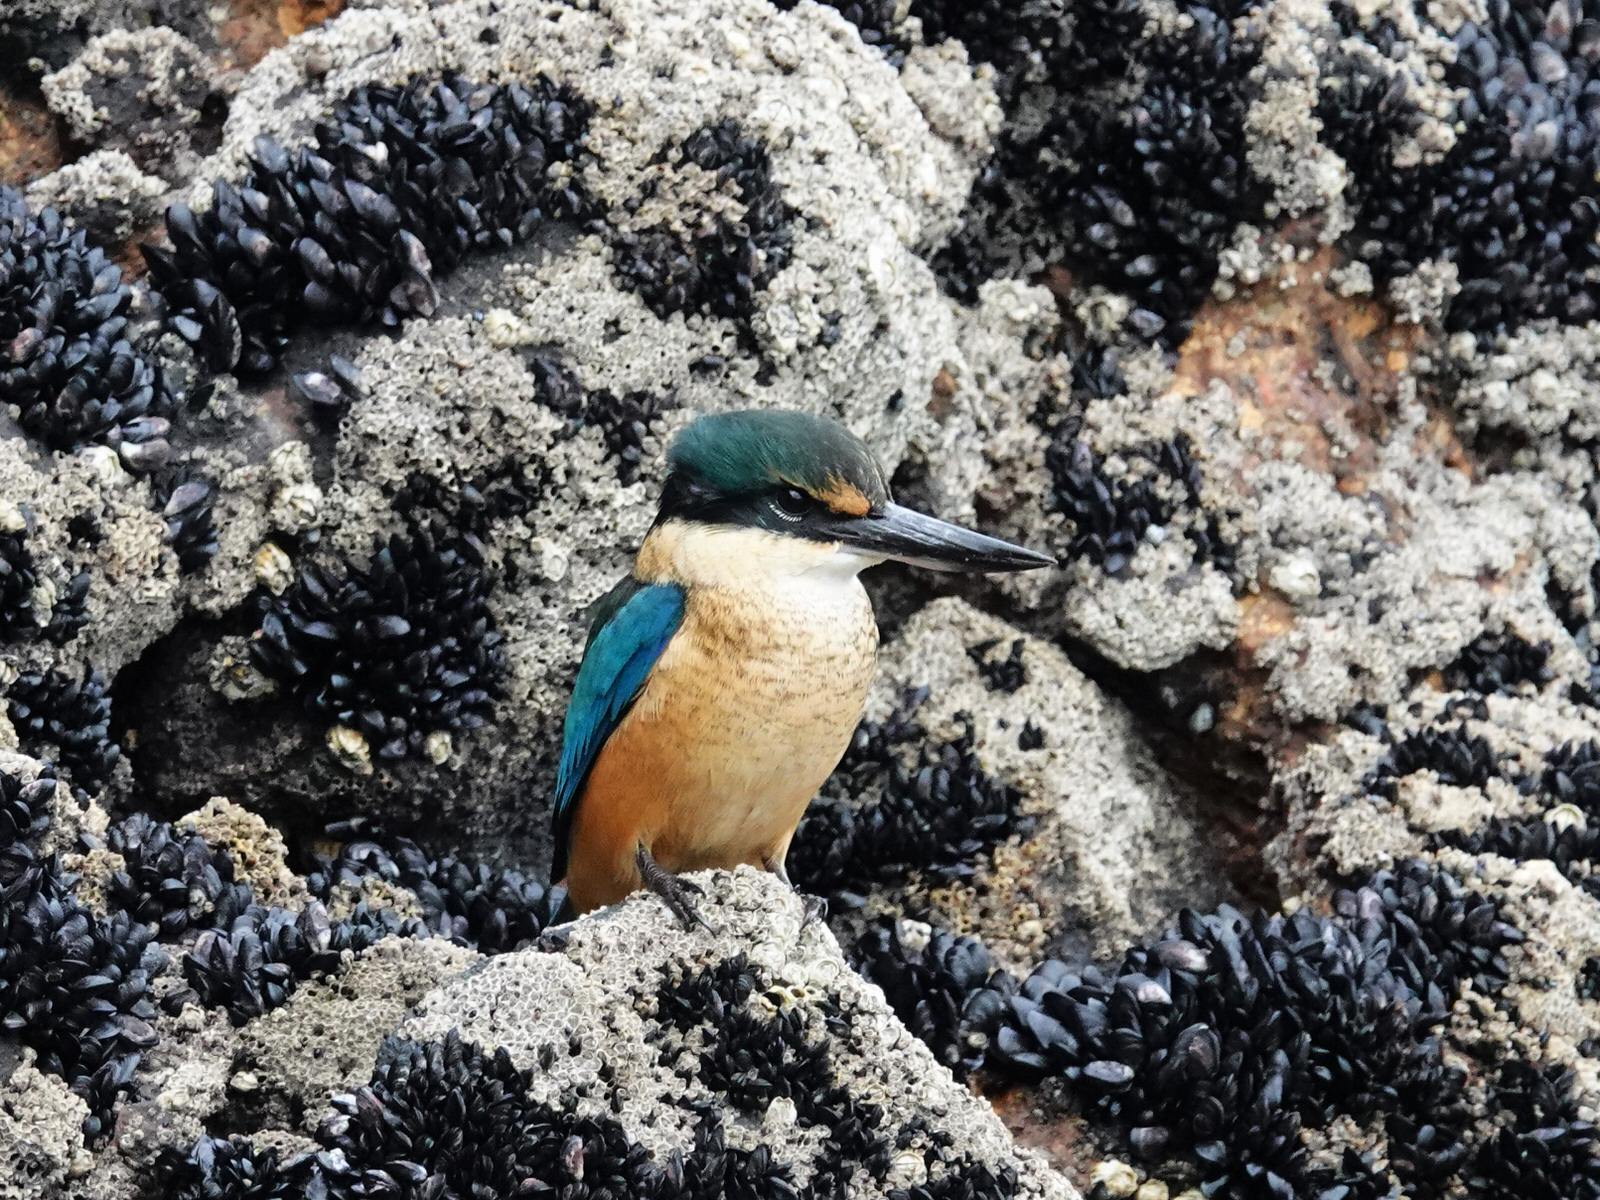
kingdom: Animalia
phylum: Chordata
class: Aves
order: Coraciiformes
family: Alcedinidae
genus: Todiramphus
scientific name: Todiramphus sanctus
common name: Sacred kingfisher
